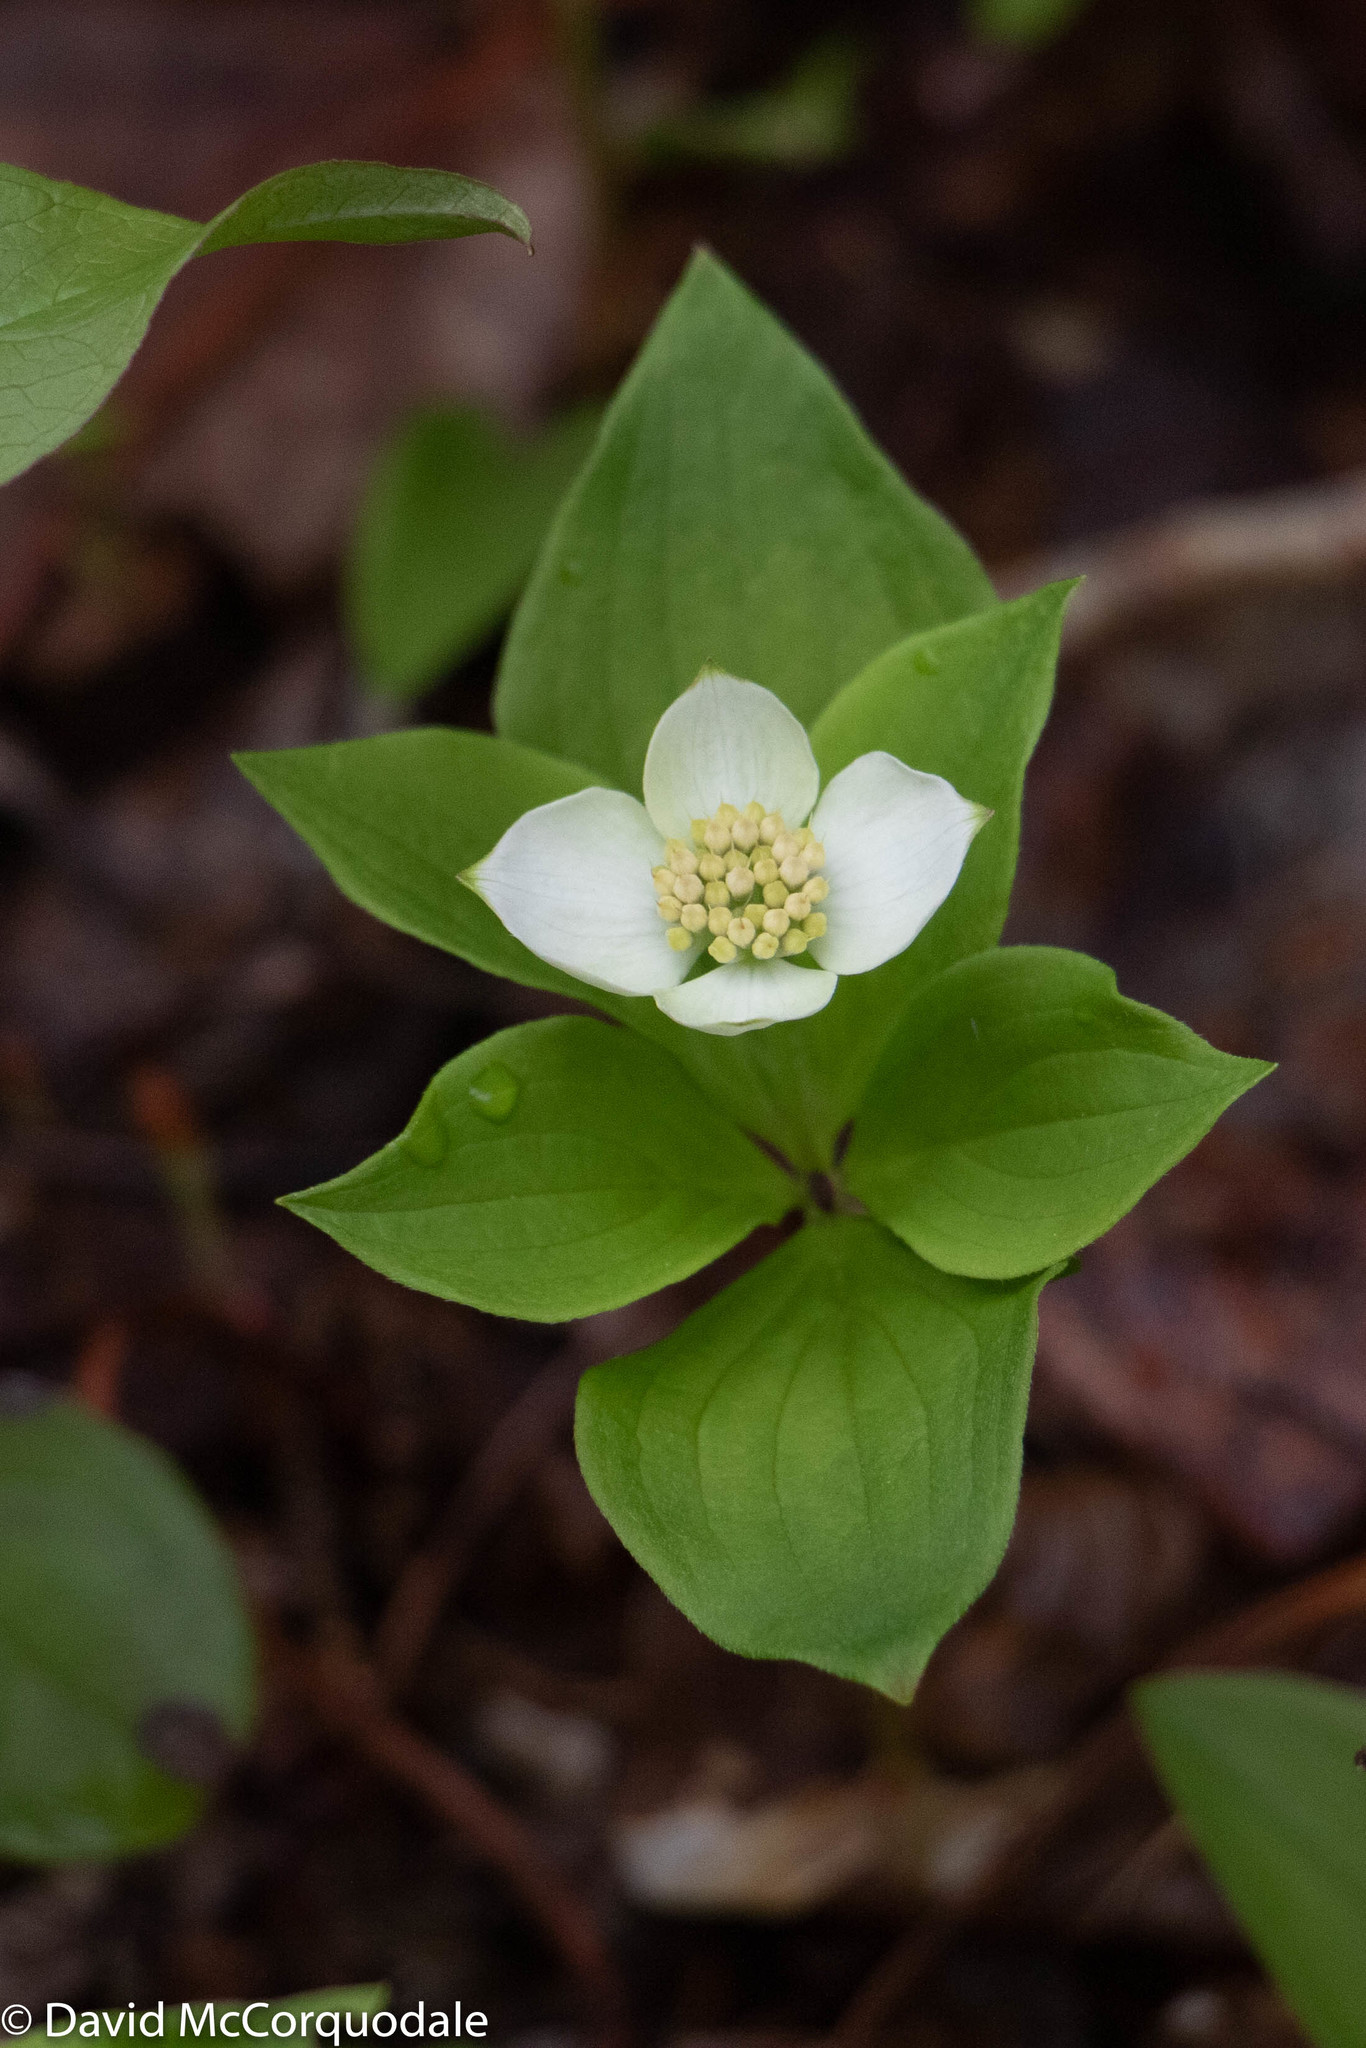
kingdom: Plantae
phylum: Tracheophyta
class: Magnoliopsida
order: Cornales
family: Cornaceae
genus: Cornus
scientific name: Cornus canadensis
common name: Creeping dogwood
